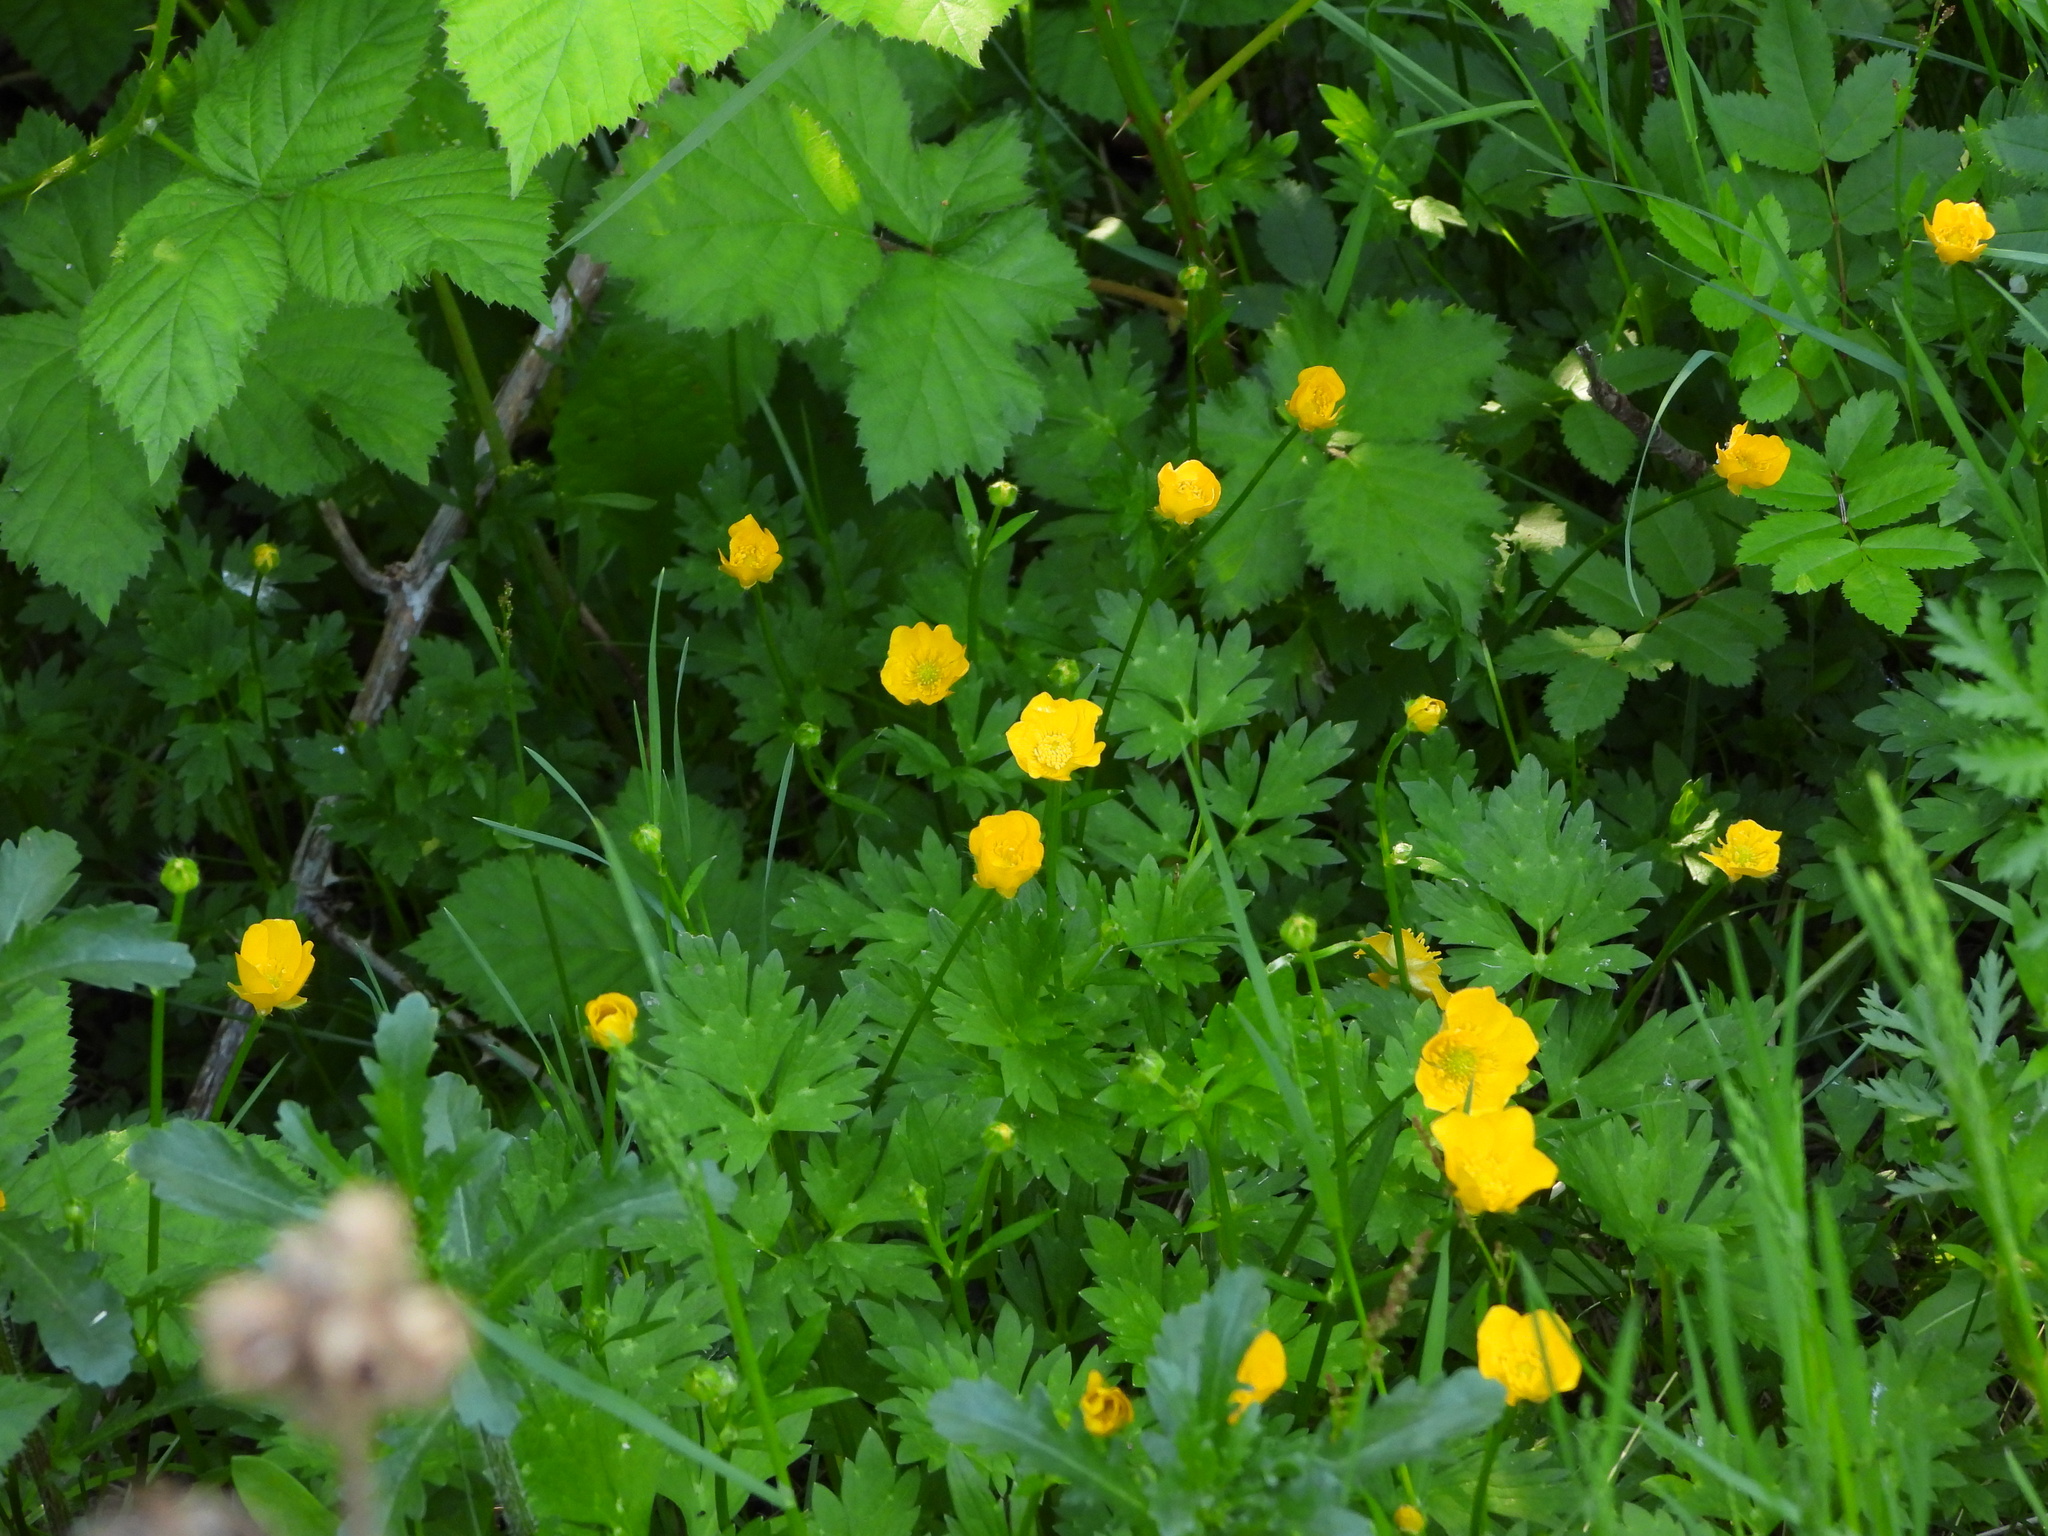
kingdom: Plantae
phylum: Tracheophyta
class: Magnoliopsida
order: Ranunculales
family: Ranunculaceae
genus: Ranunculus
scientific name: Ranunculus repens
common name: Creeping buttercup
